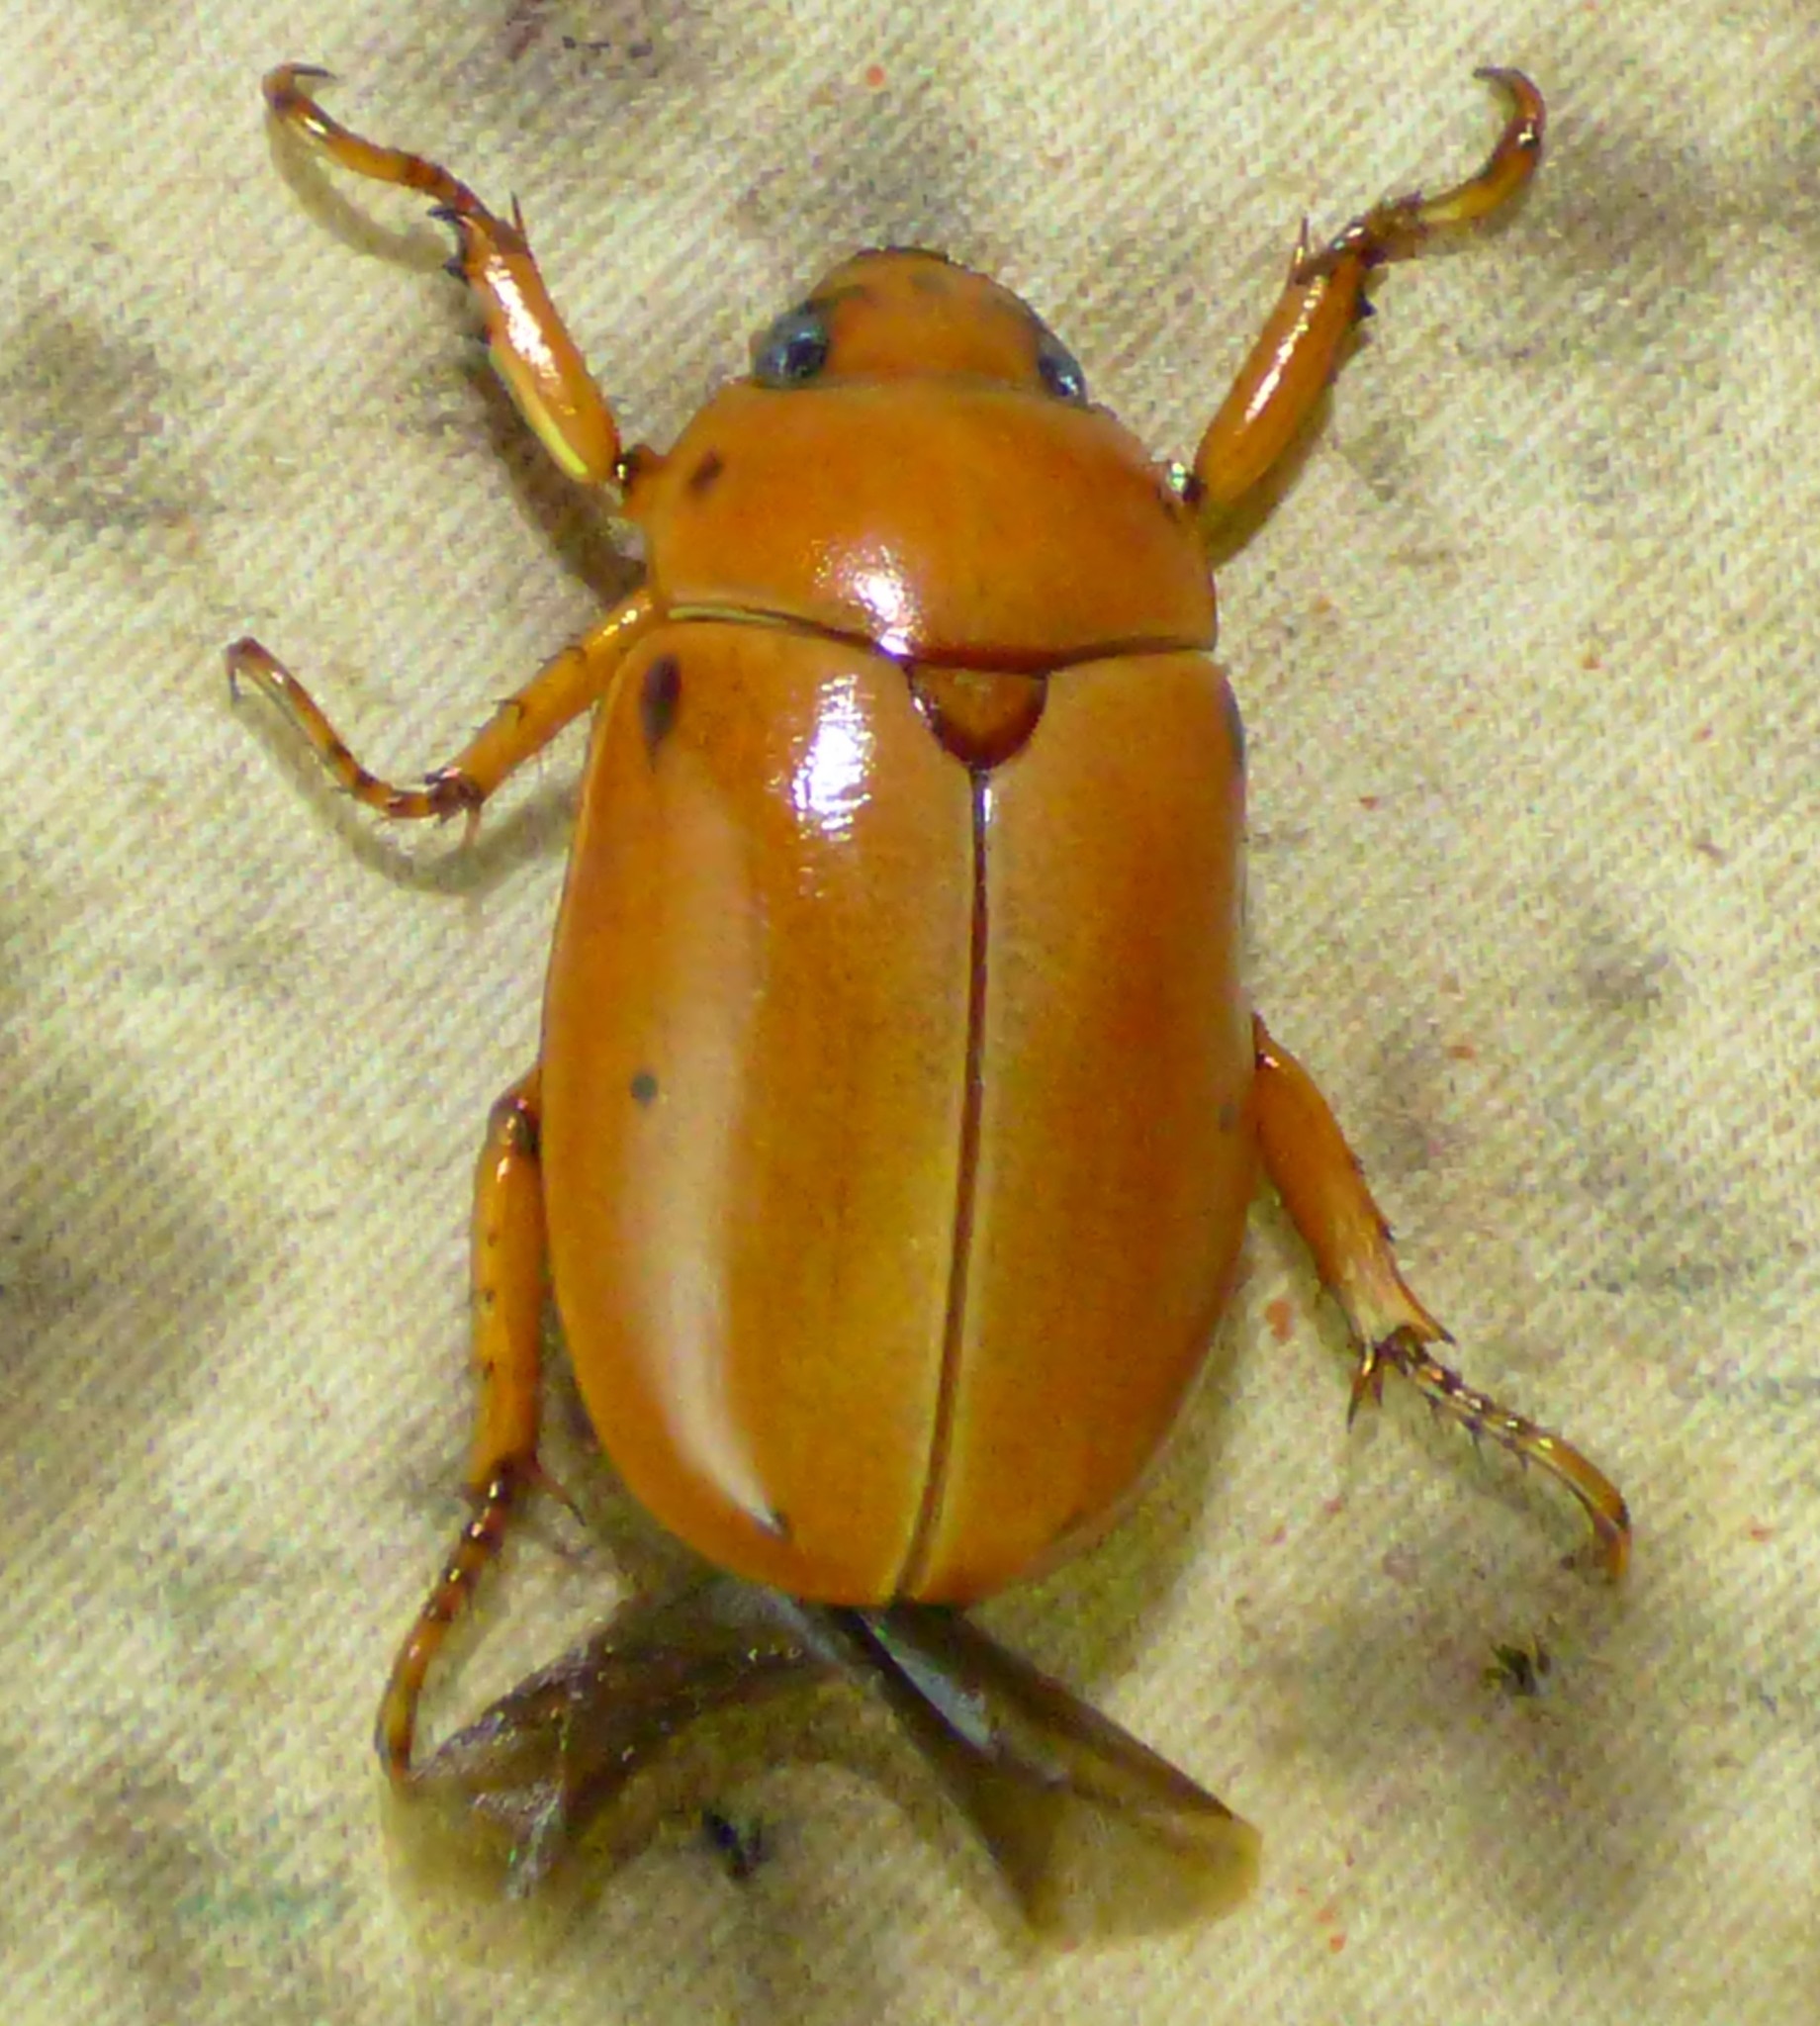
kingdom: Animalia
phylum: Arthropoda
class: Insecta
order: Coleoptera
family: Scarabaeidae
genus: Pelidnota
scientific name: Pelidnota punctata
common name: Grapevine beetle
